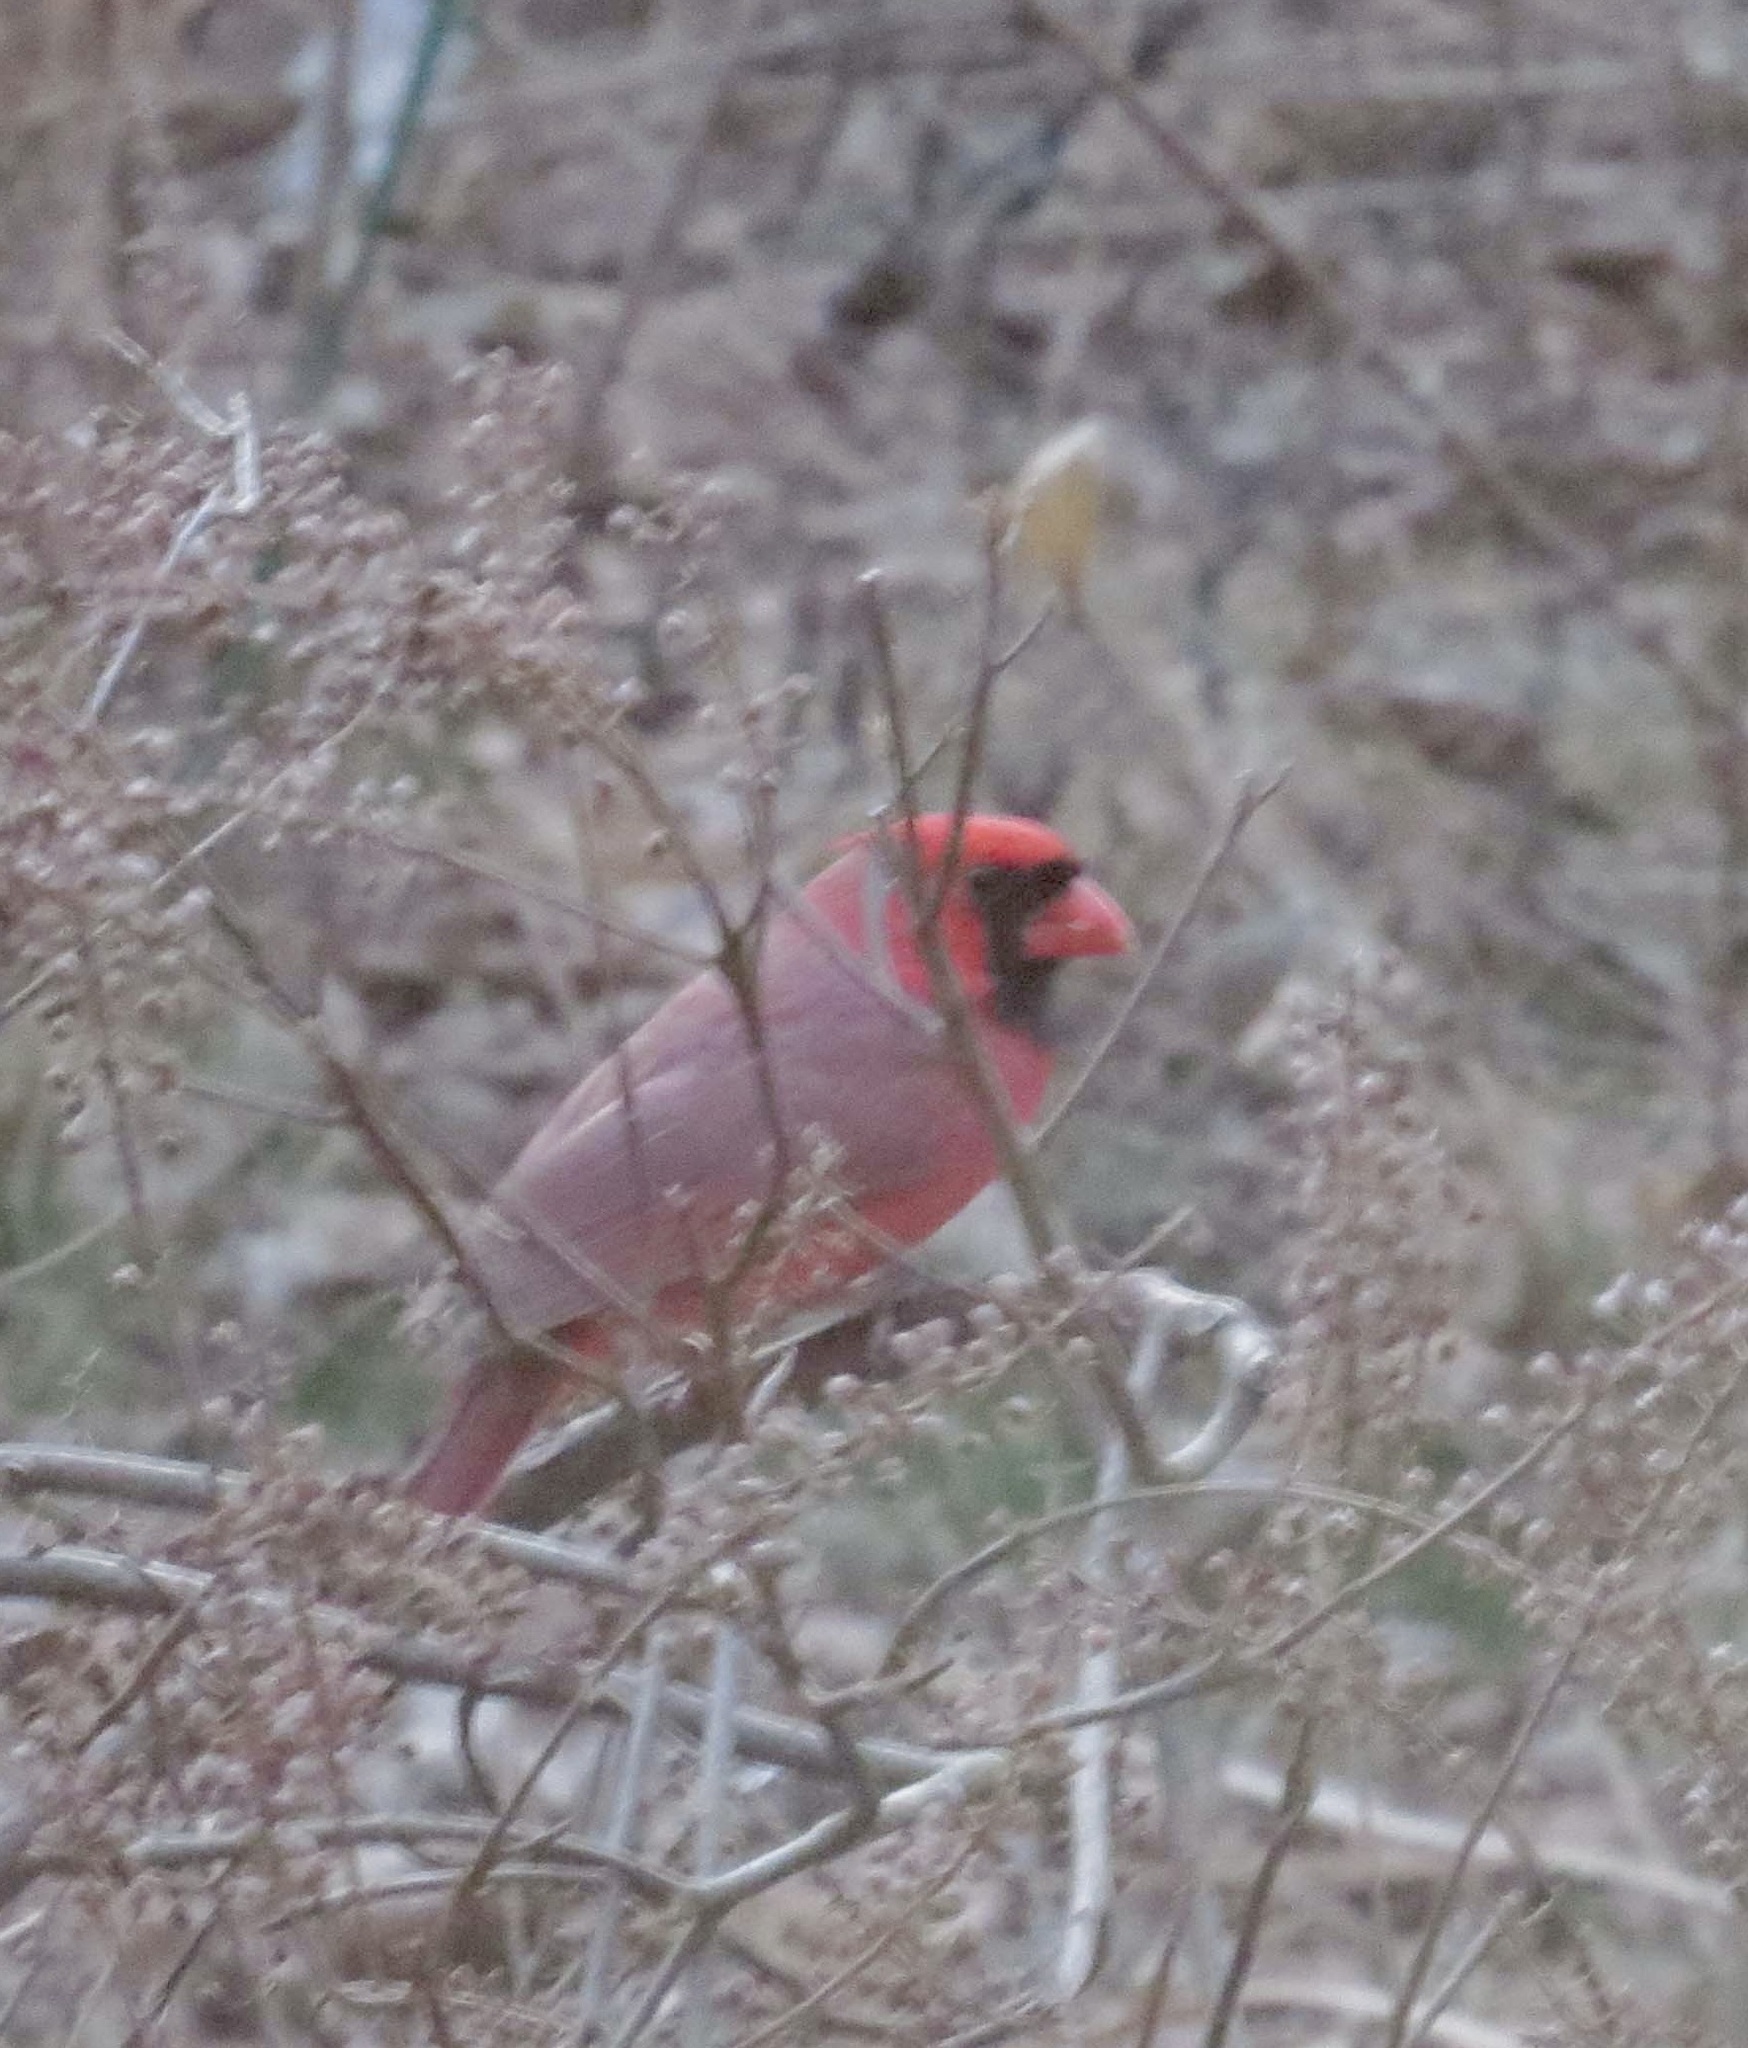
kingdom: Animalia
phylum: Chordata
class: Aves
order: Passeriformes
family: Cardinalidae
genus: Cardinalis
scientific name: Cardinalis cardinalis
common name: Northern cardinal
